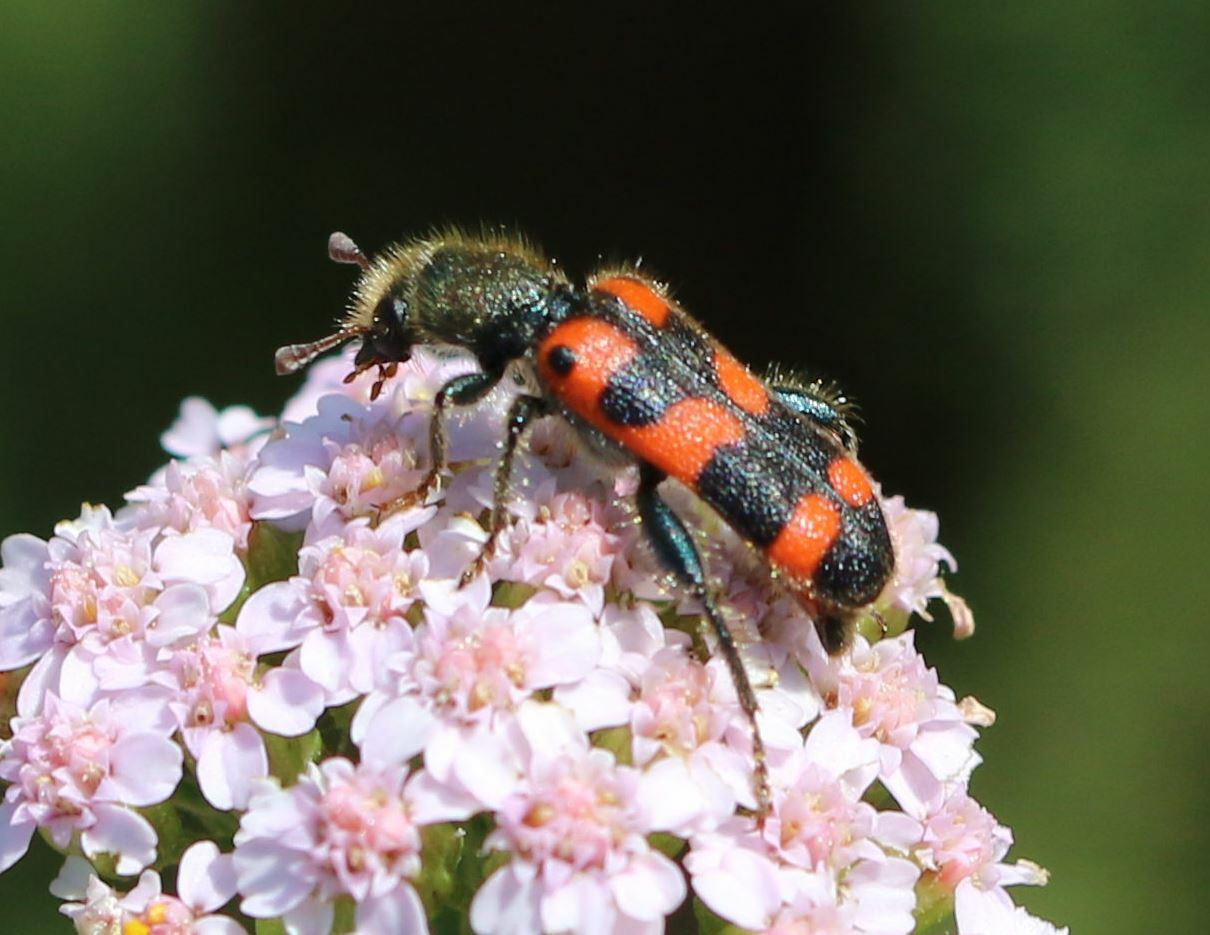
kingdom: Animalia
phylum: Arthropoda
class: Insecta
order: Coleoptera
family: Cleridae
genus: Trichodes
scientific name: Trichodes leucopsideus
